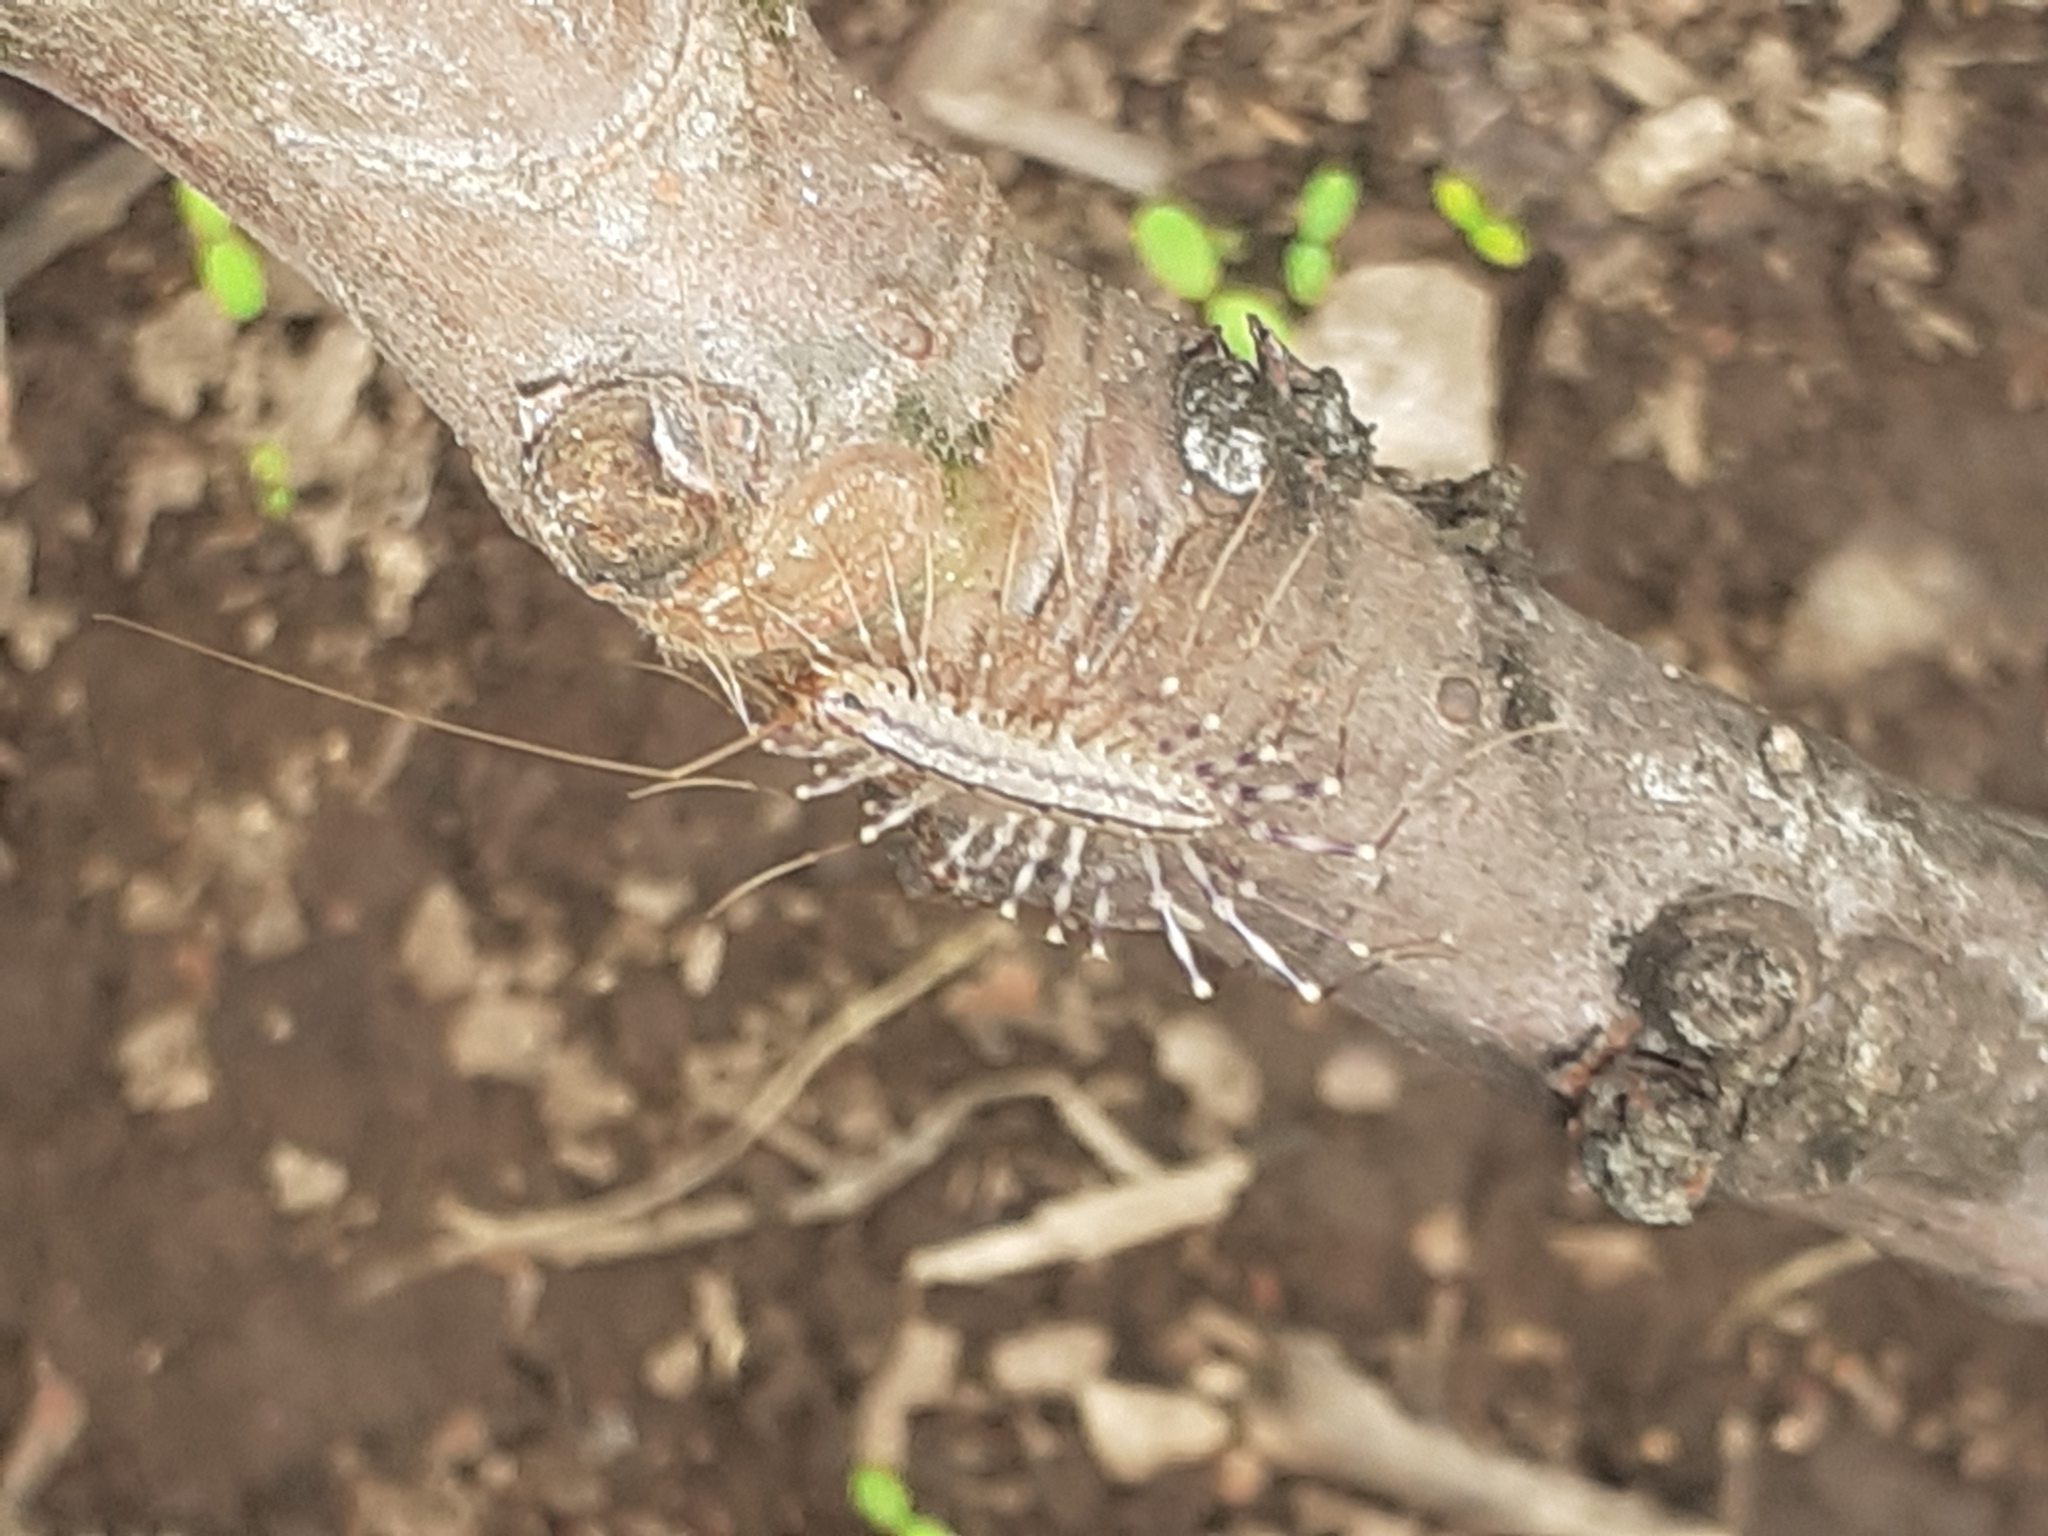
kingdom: Animalia
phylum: Arthropoda
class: Chilopoda
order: Scutigeromorpha
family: Scutigeridae
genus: Scutigera
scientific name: Scutigera coleoptrata
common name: House centipede
